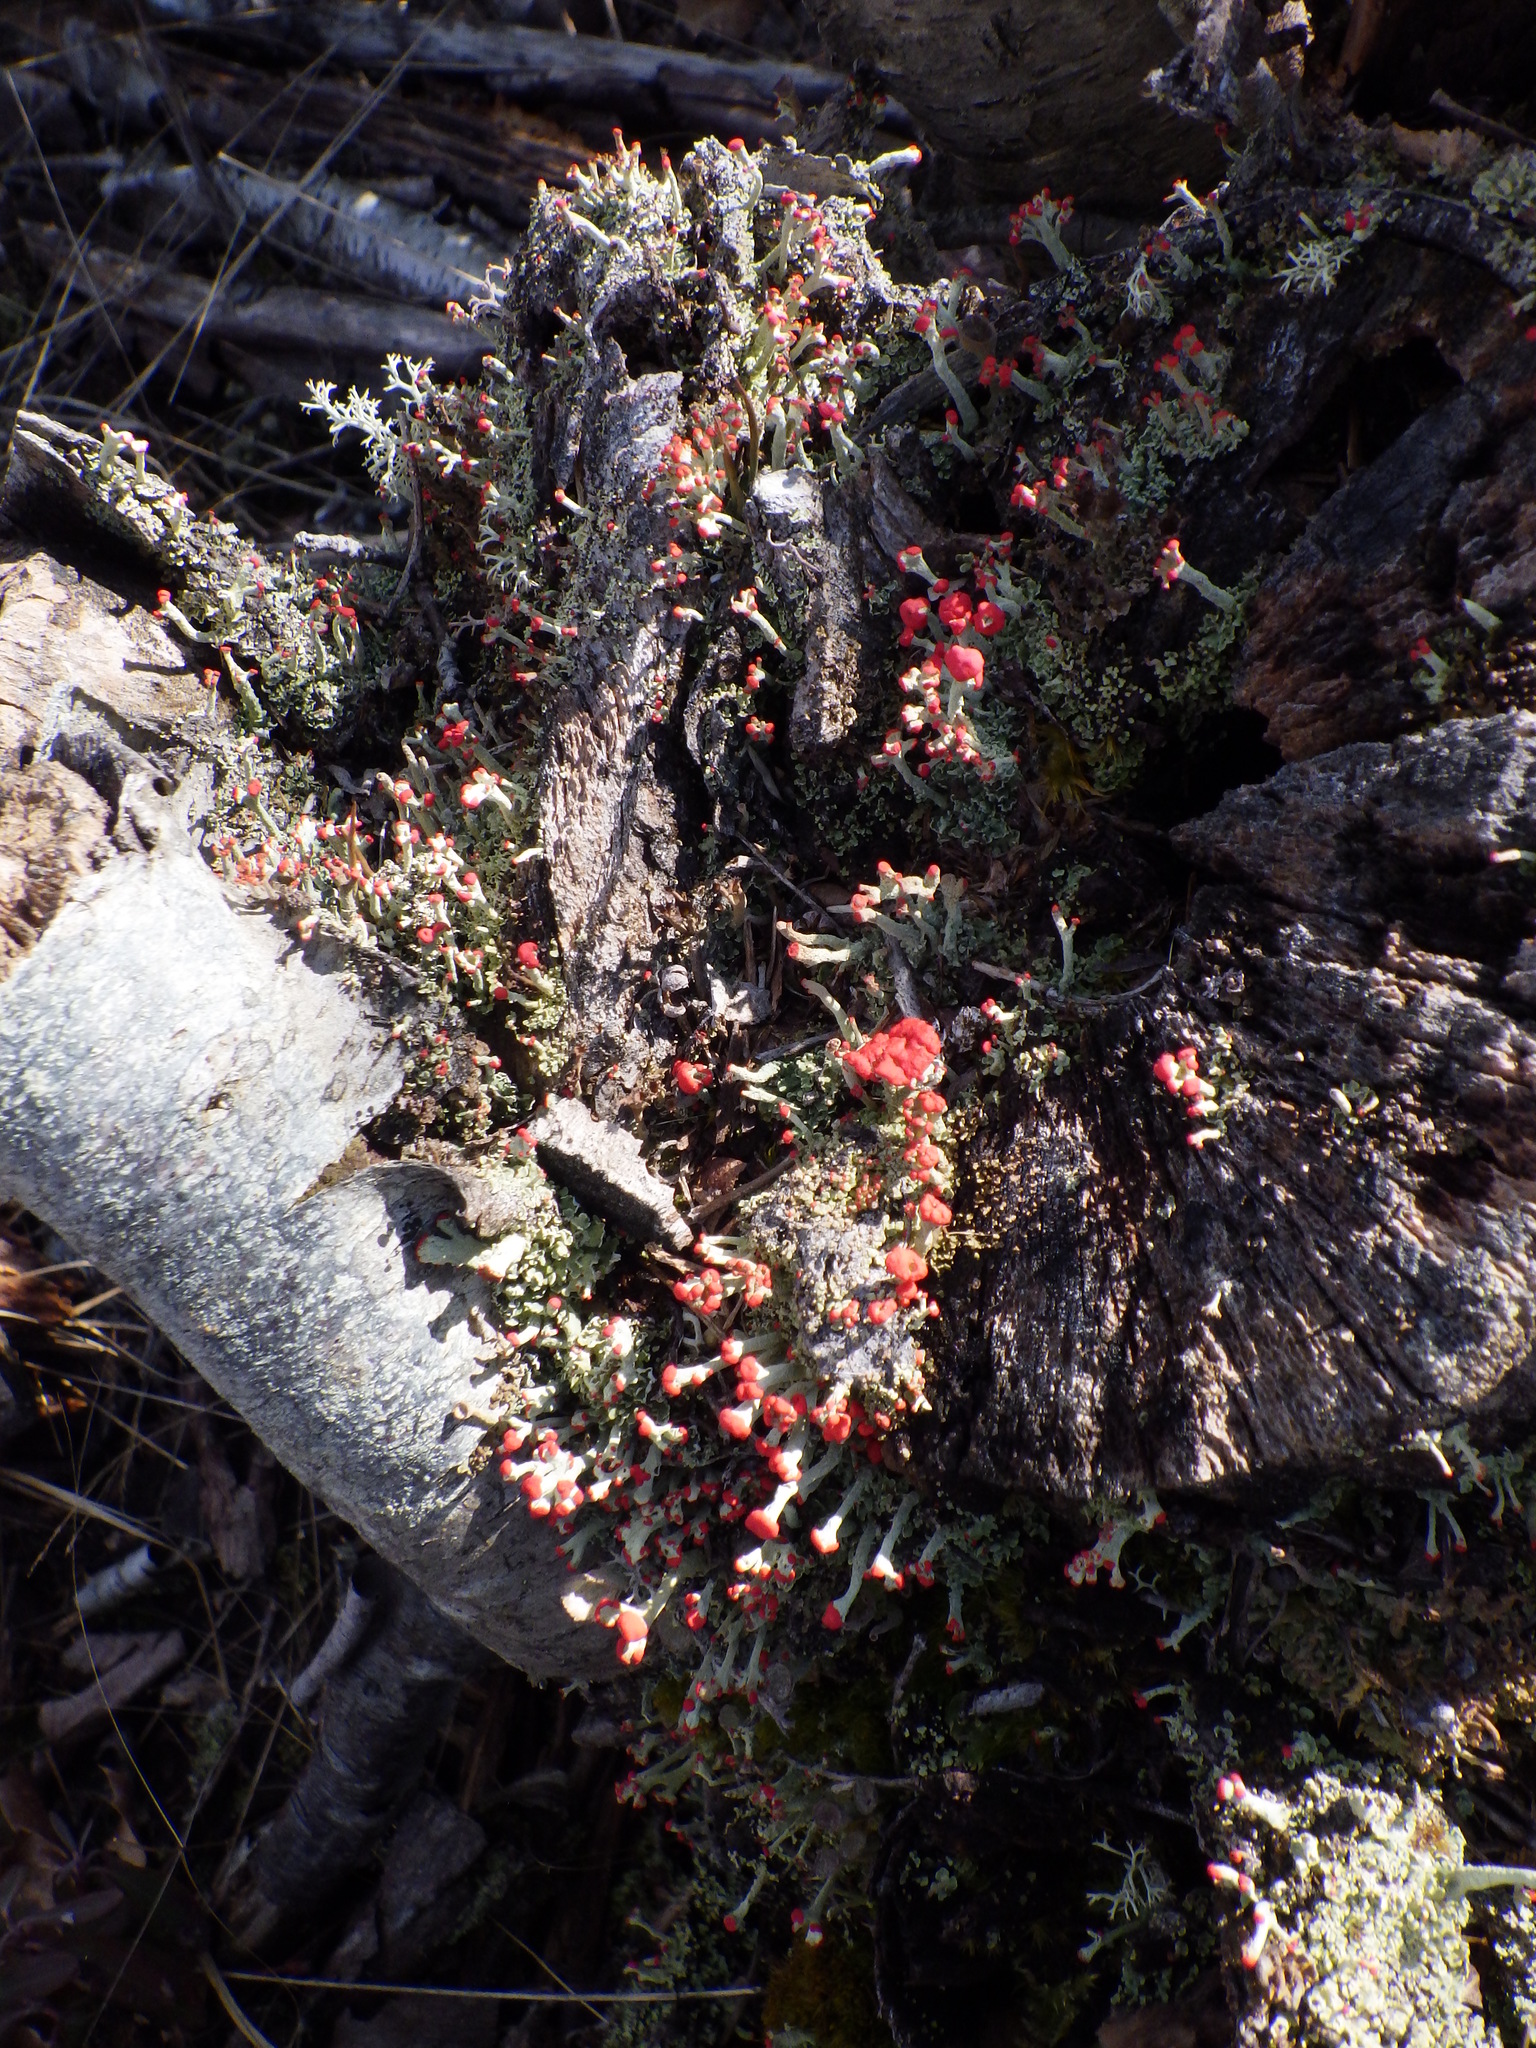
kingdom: Fungi
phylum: Ascomycota
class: Lecanoromycetes
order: Lecanorales
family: Cladoniaceae
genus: Cladonia
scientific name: Cladonia cristatella
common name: British soldier lichen
